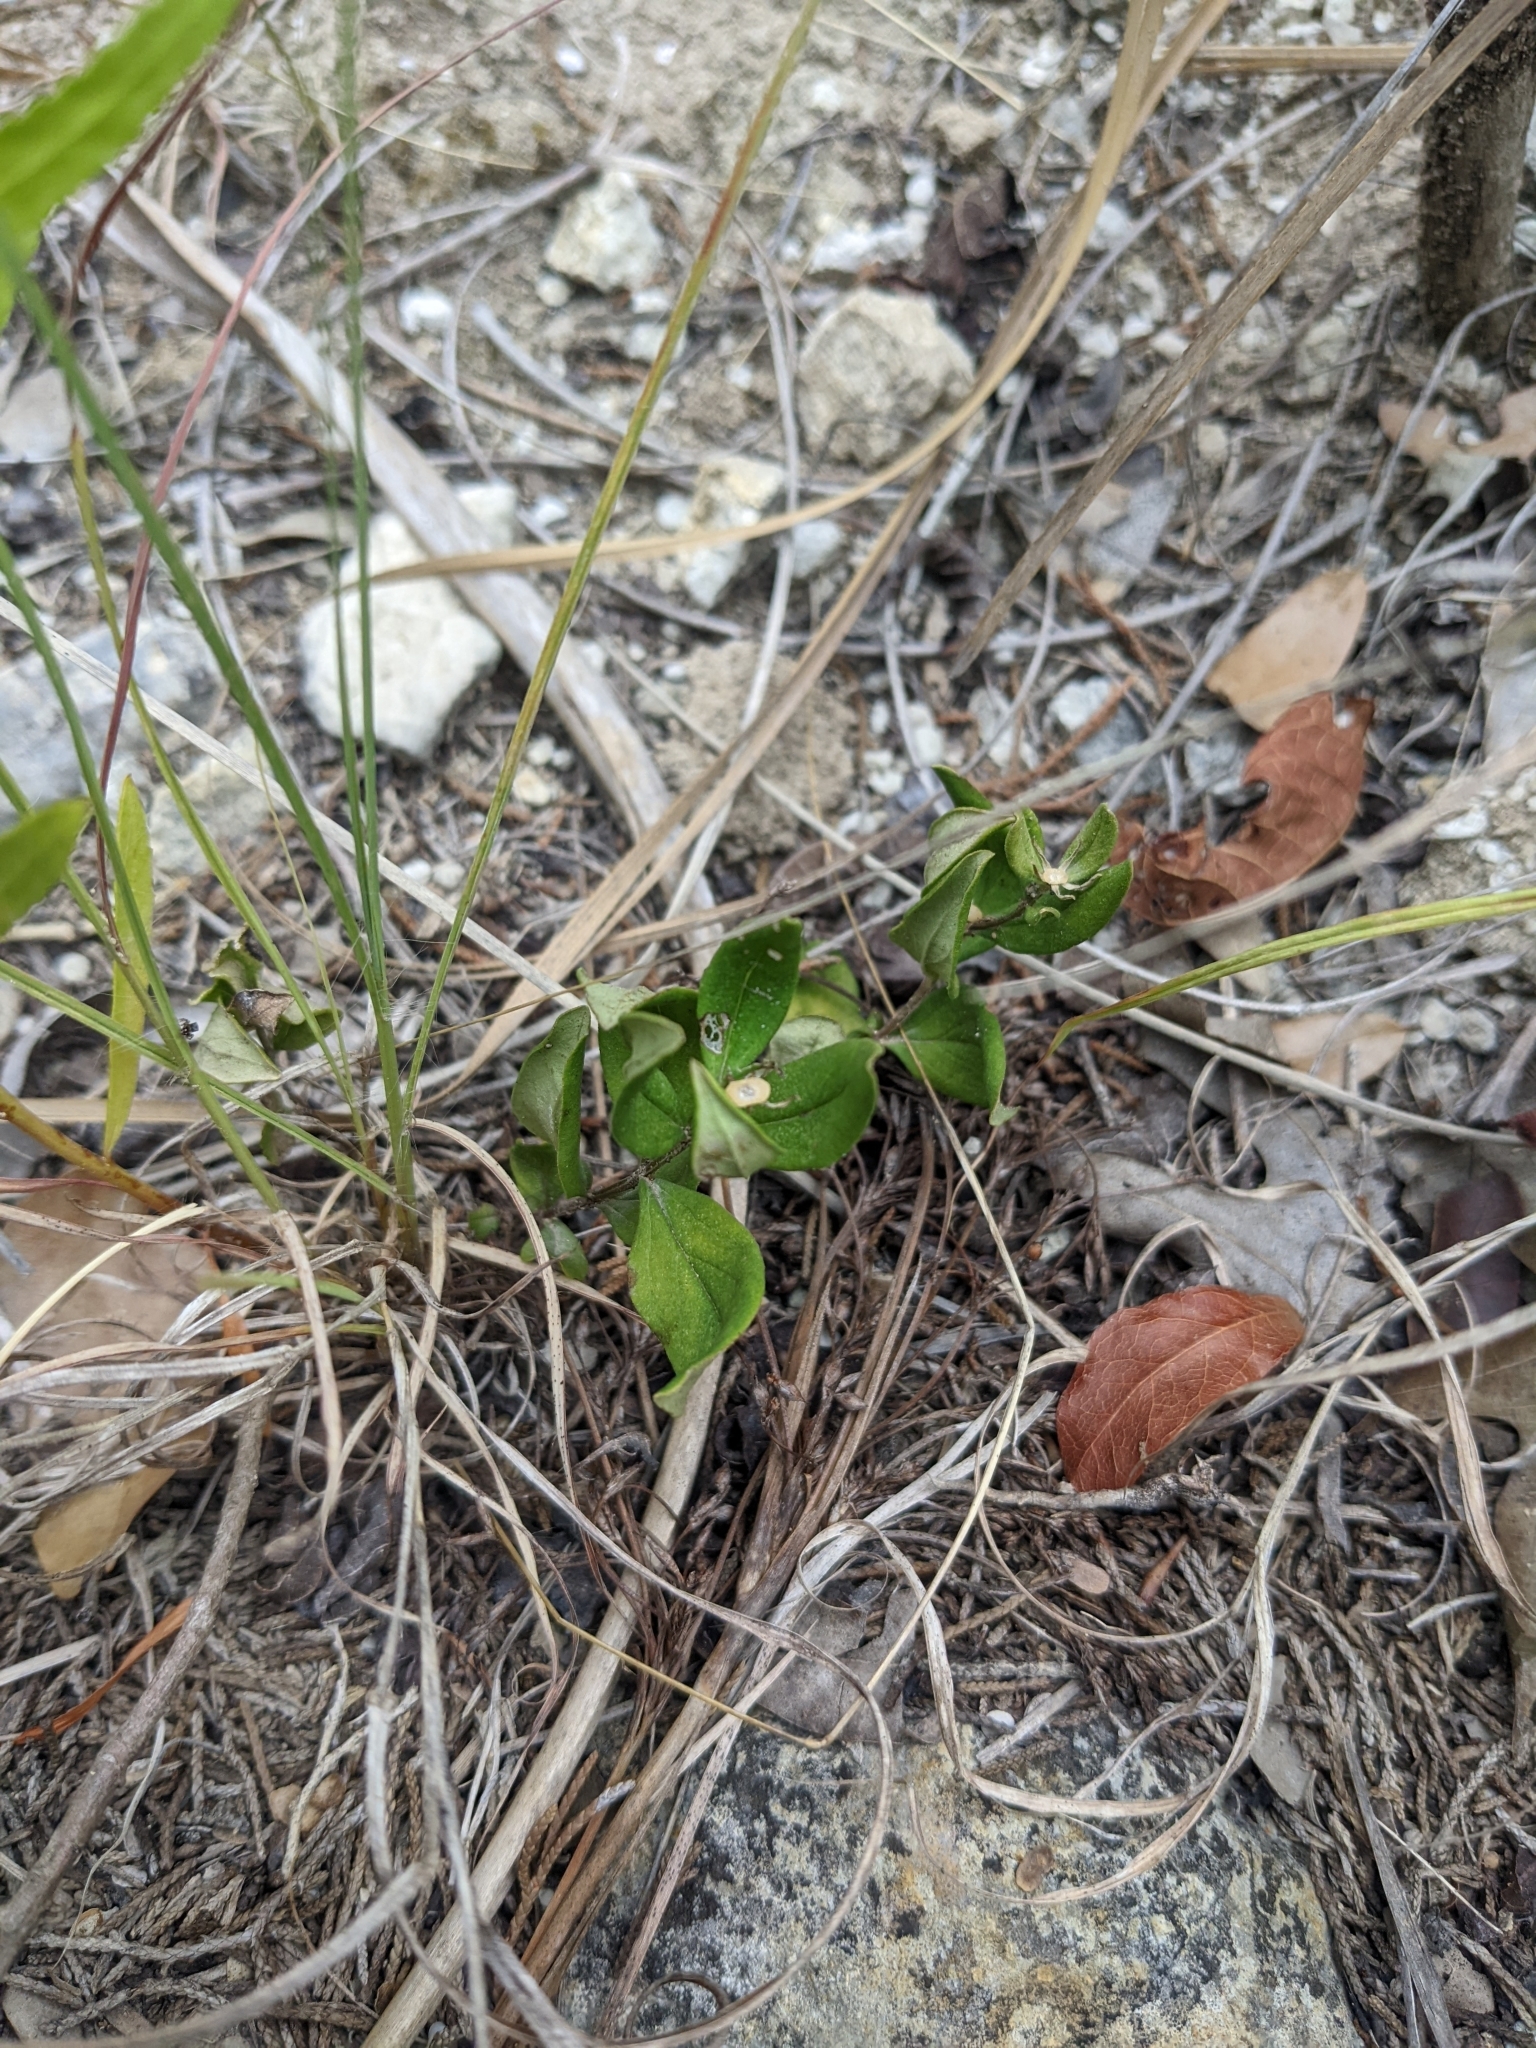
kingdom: Plantae
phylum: Tracheophyta
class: Magnoliopsida
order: Gentianales
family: Loganiaceae
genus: Spigelia
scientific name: Spigelia hedyotidea
